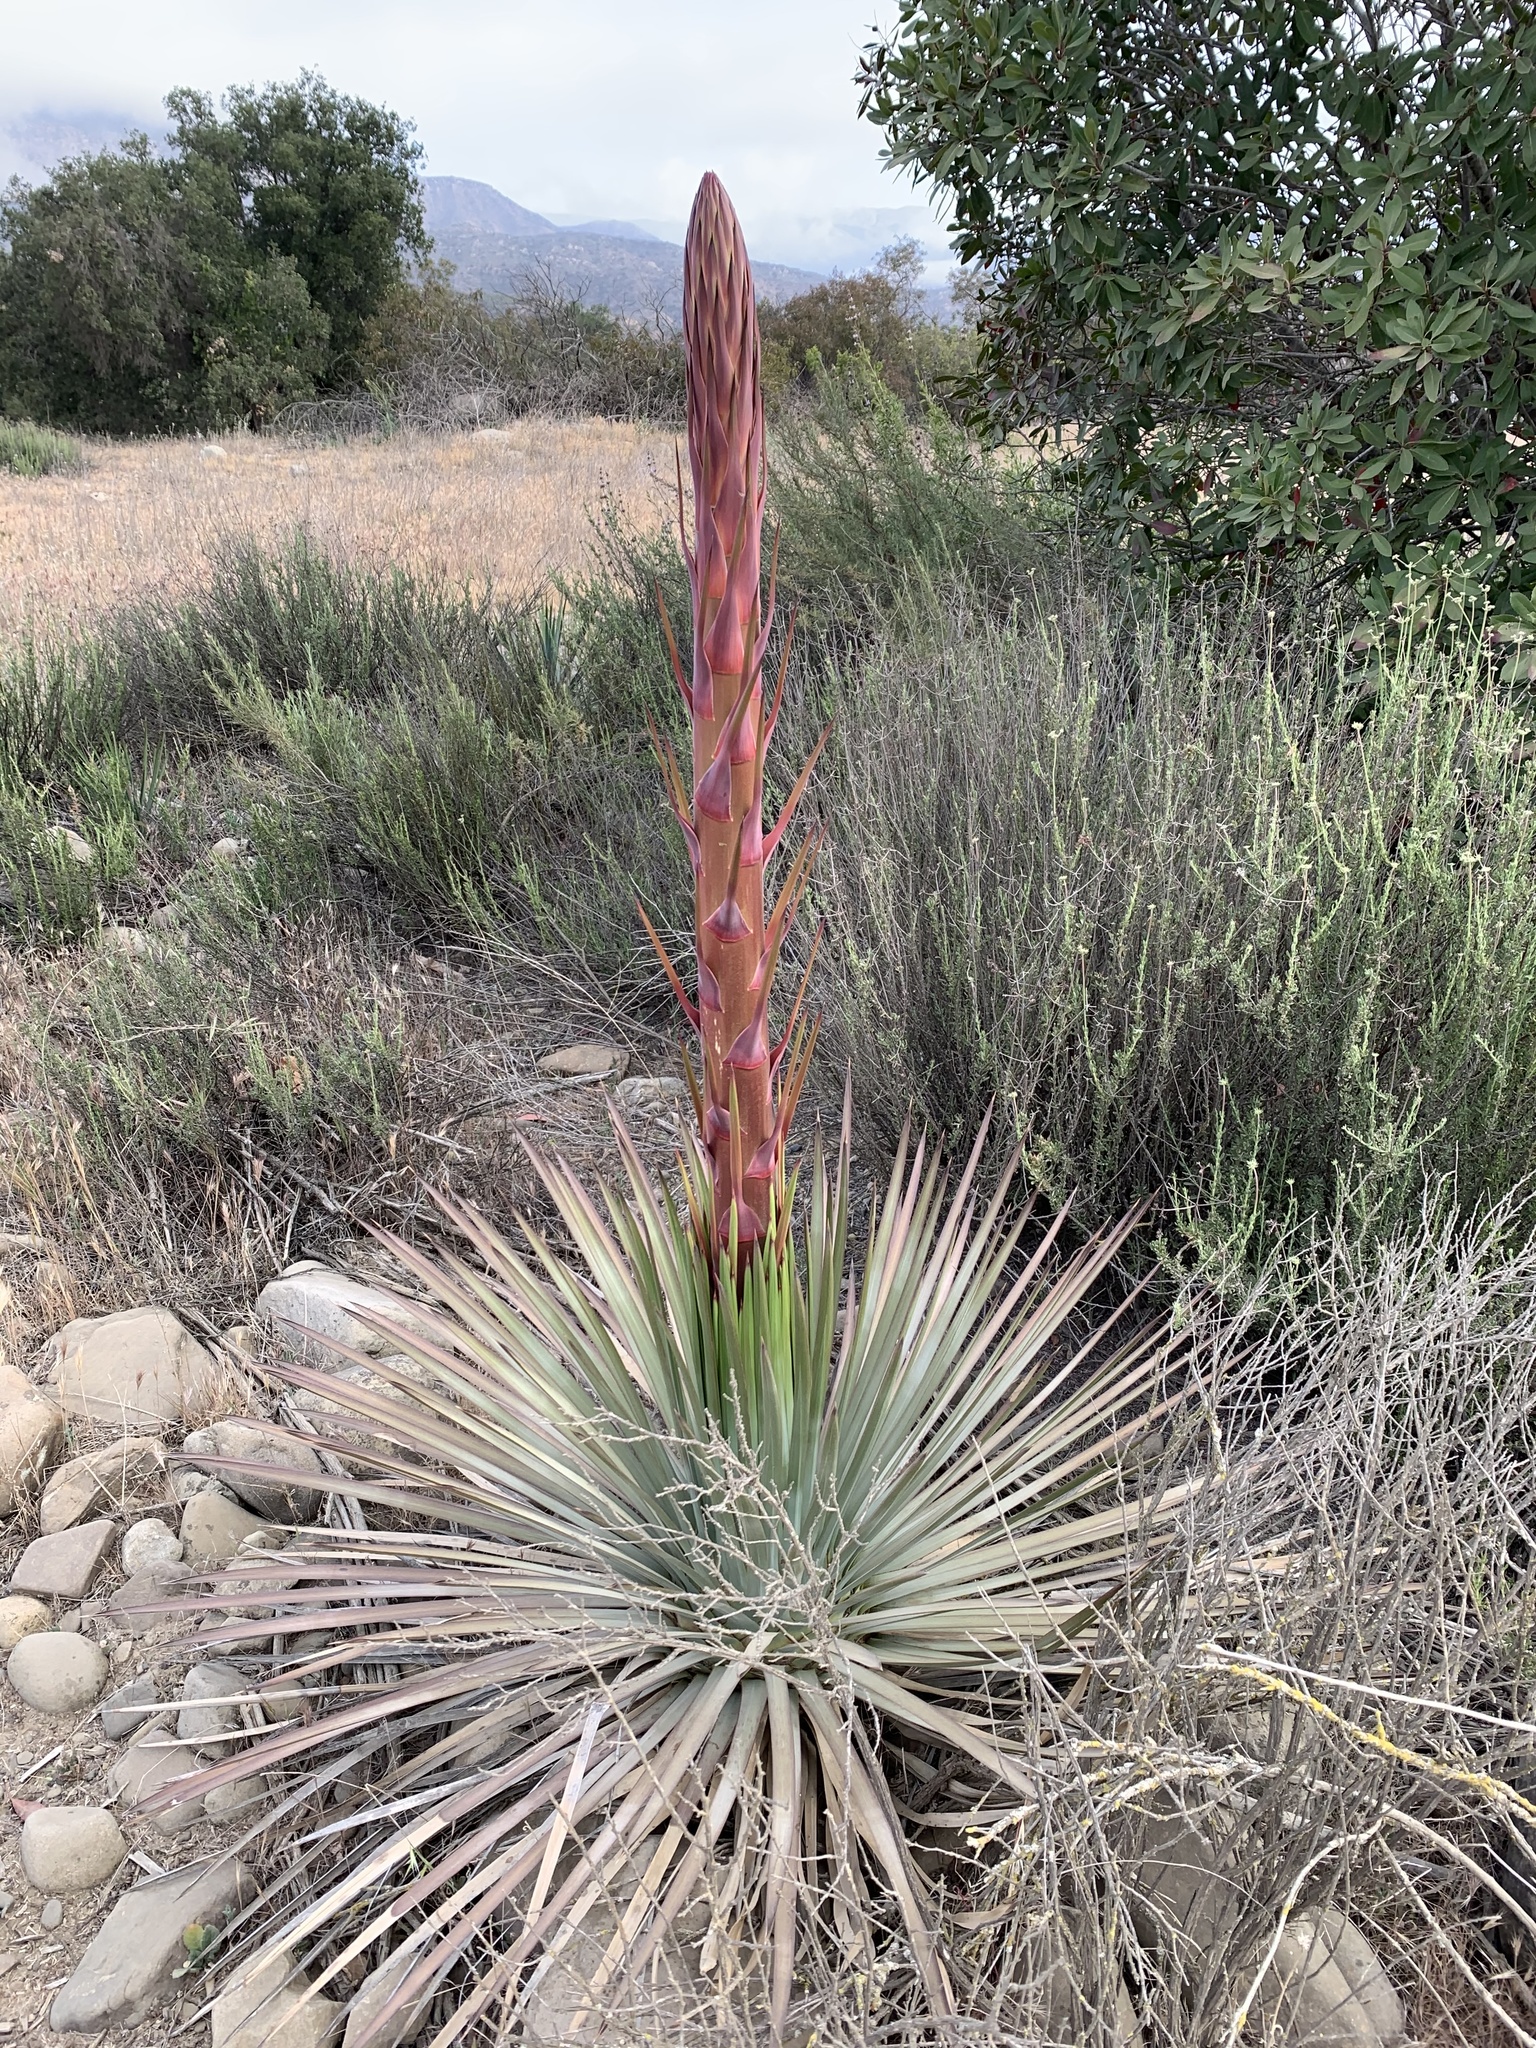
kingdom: Plantae
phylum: Tracheophyta
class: Liliopsida
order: Asparagales
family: Asparagaceae
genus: Hesperoyucca
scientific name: Hesperoyucca whipplei
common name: Our lord's-candle
